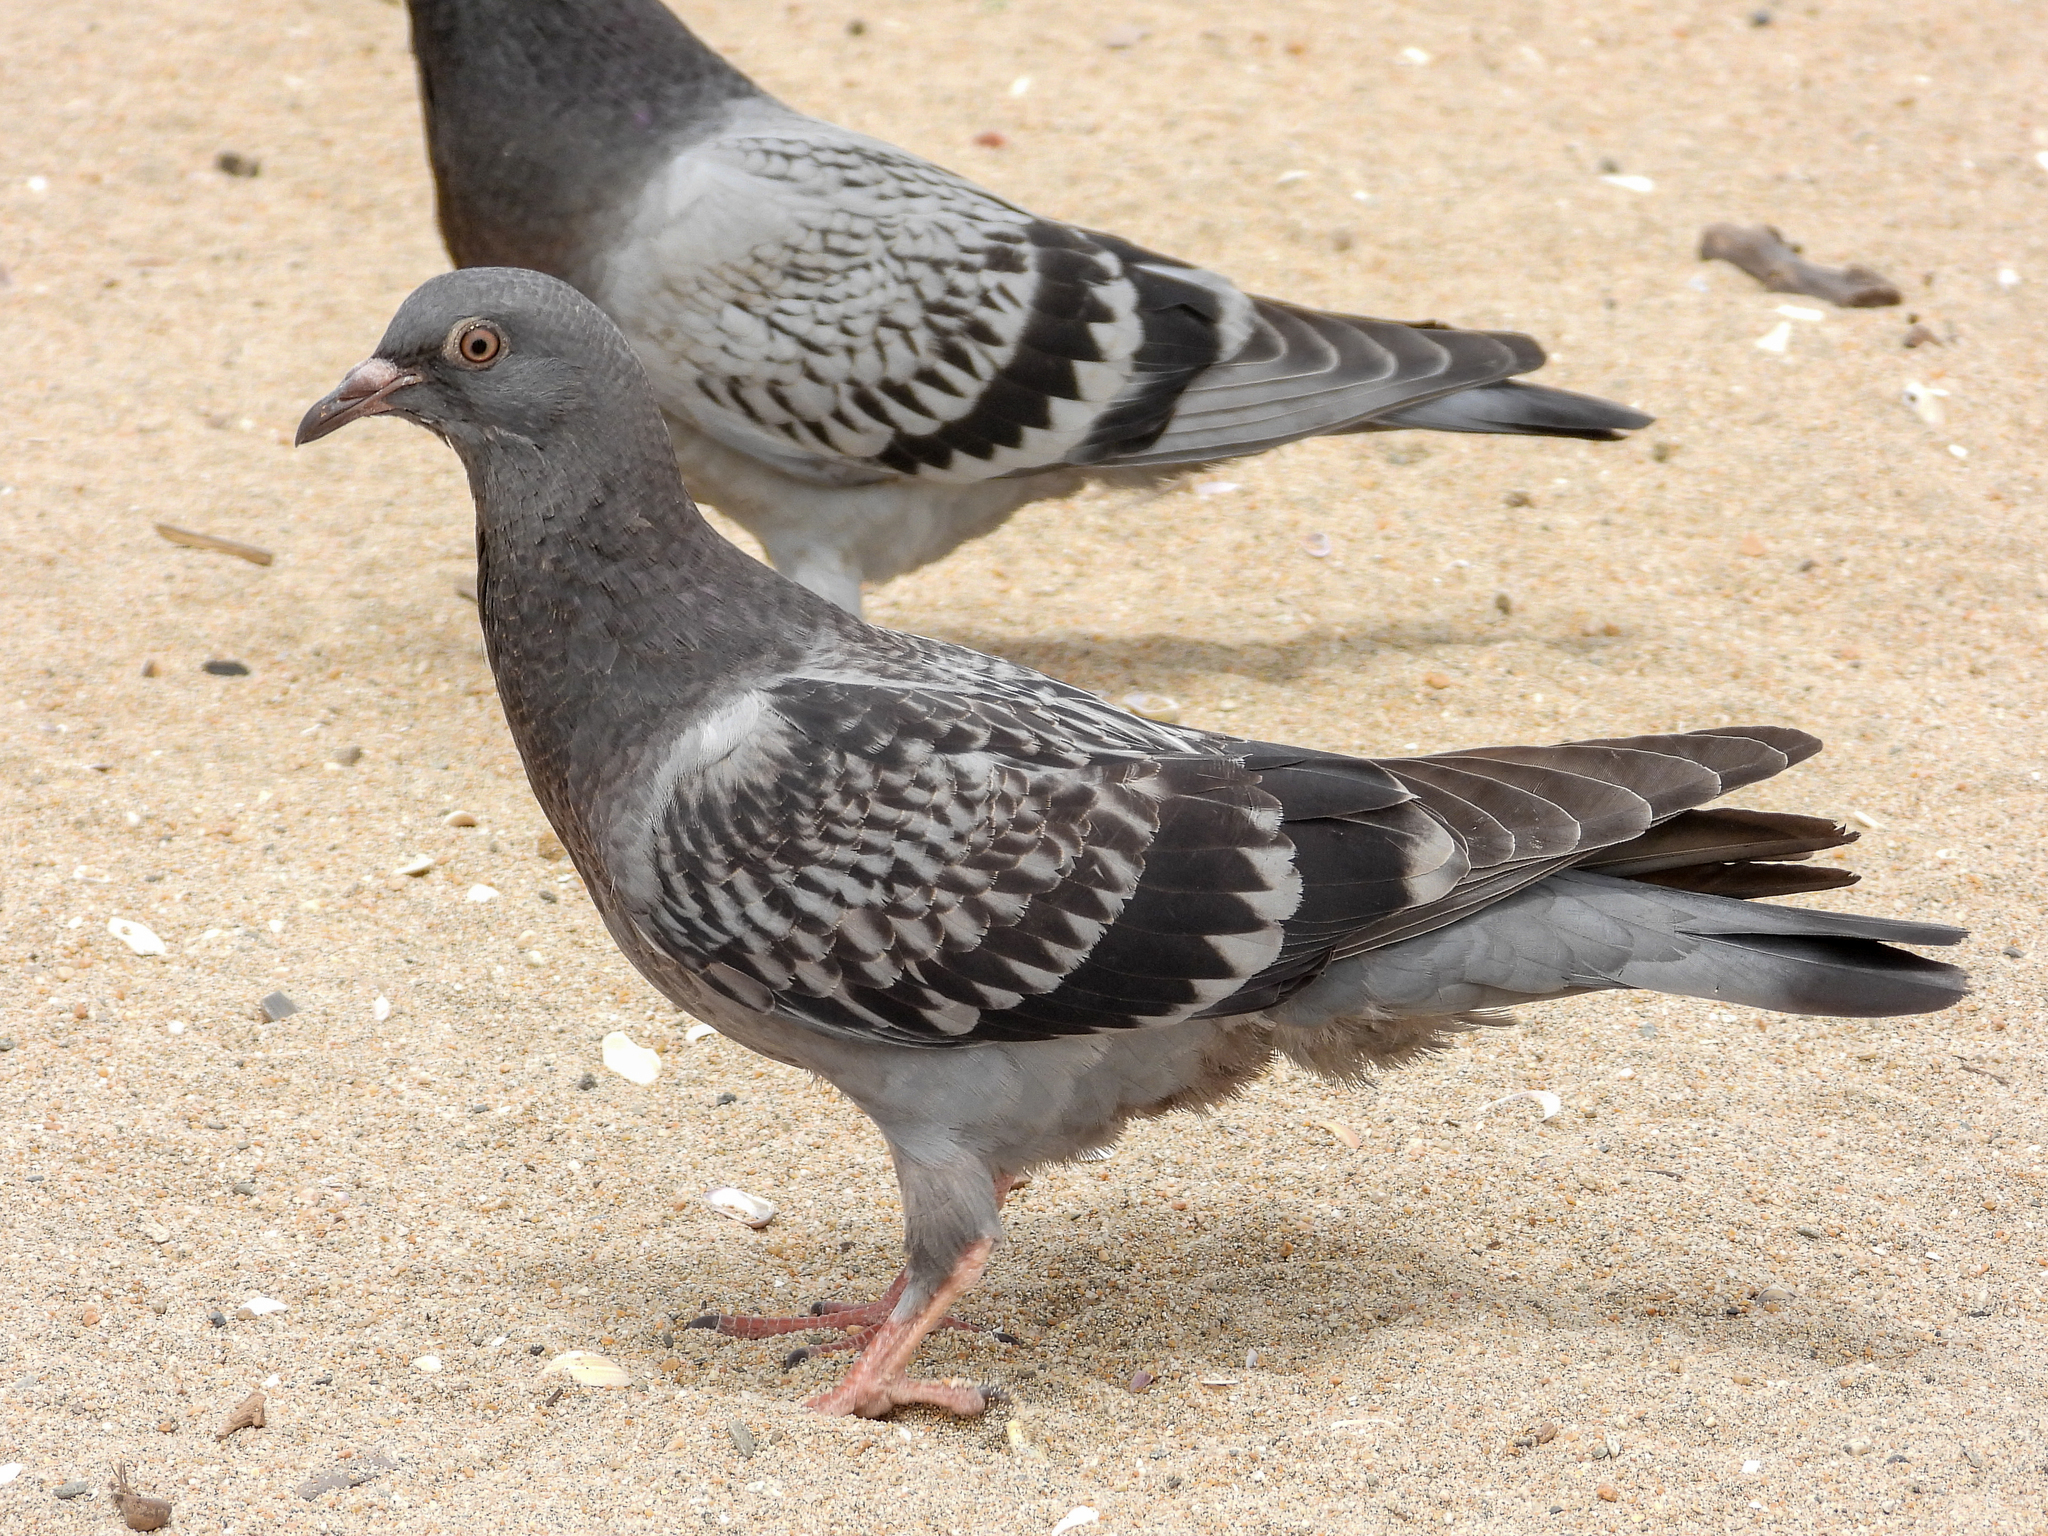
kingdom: Animalia
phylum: Chordata
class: Aves
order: Columbiformes
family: Columbidae
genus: Columba
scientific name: Columba livia
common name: Rock pigeon
